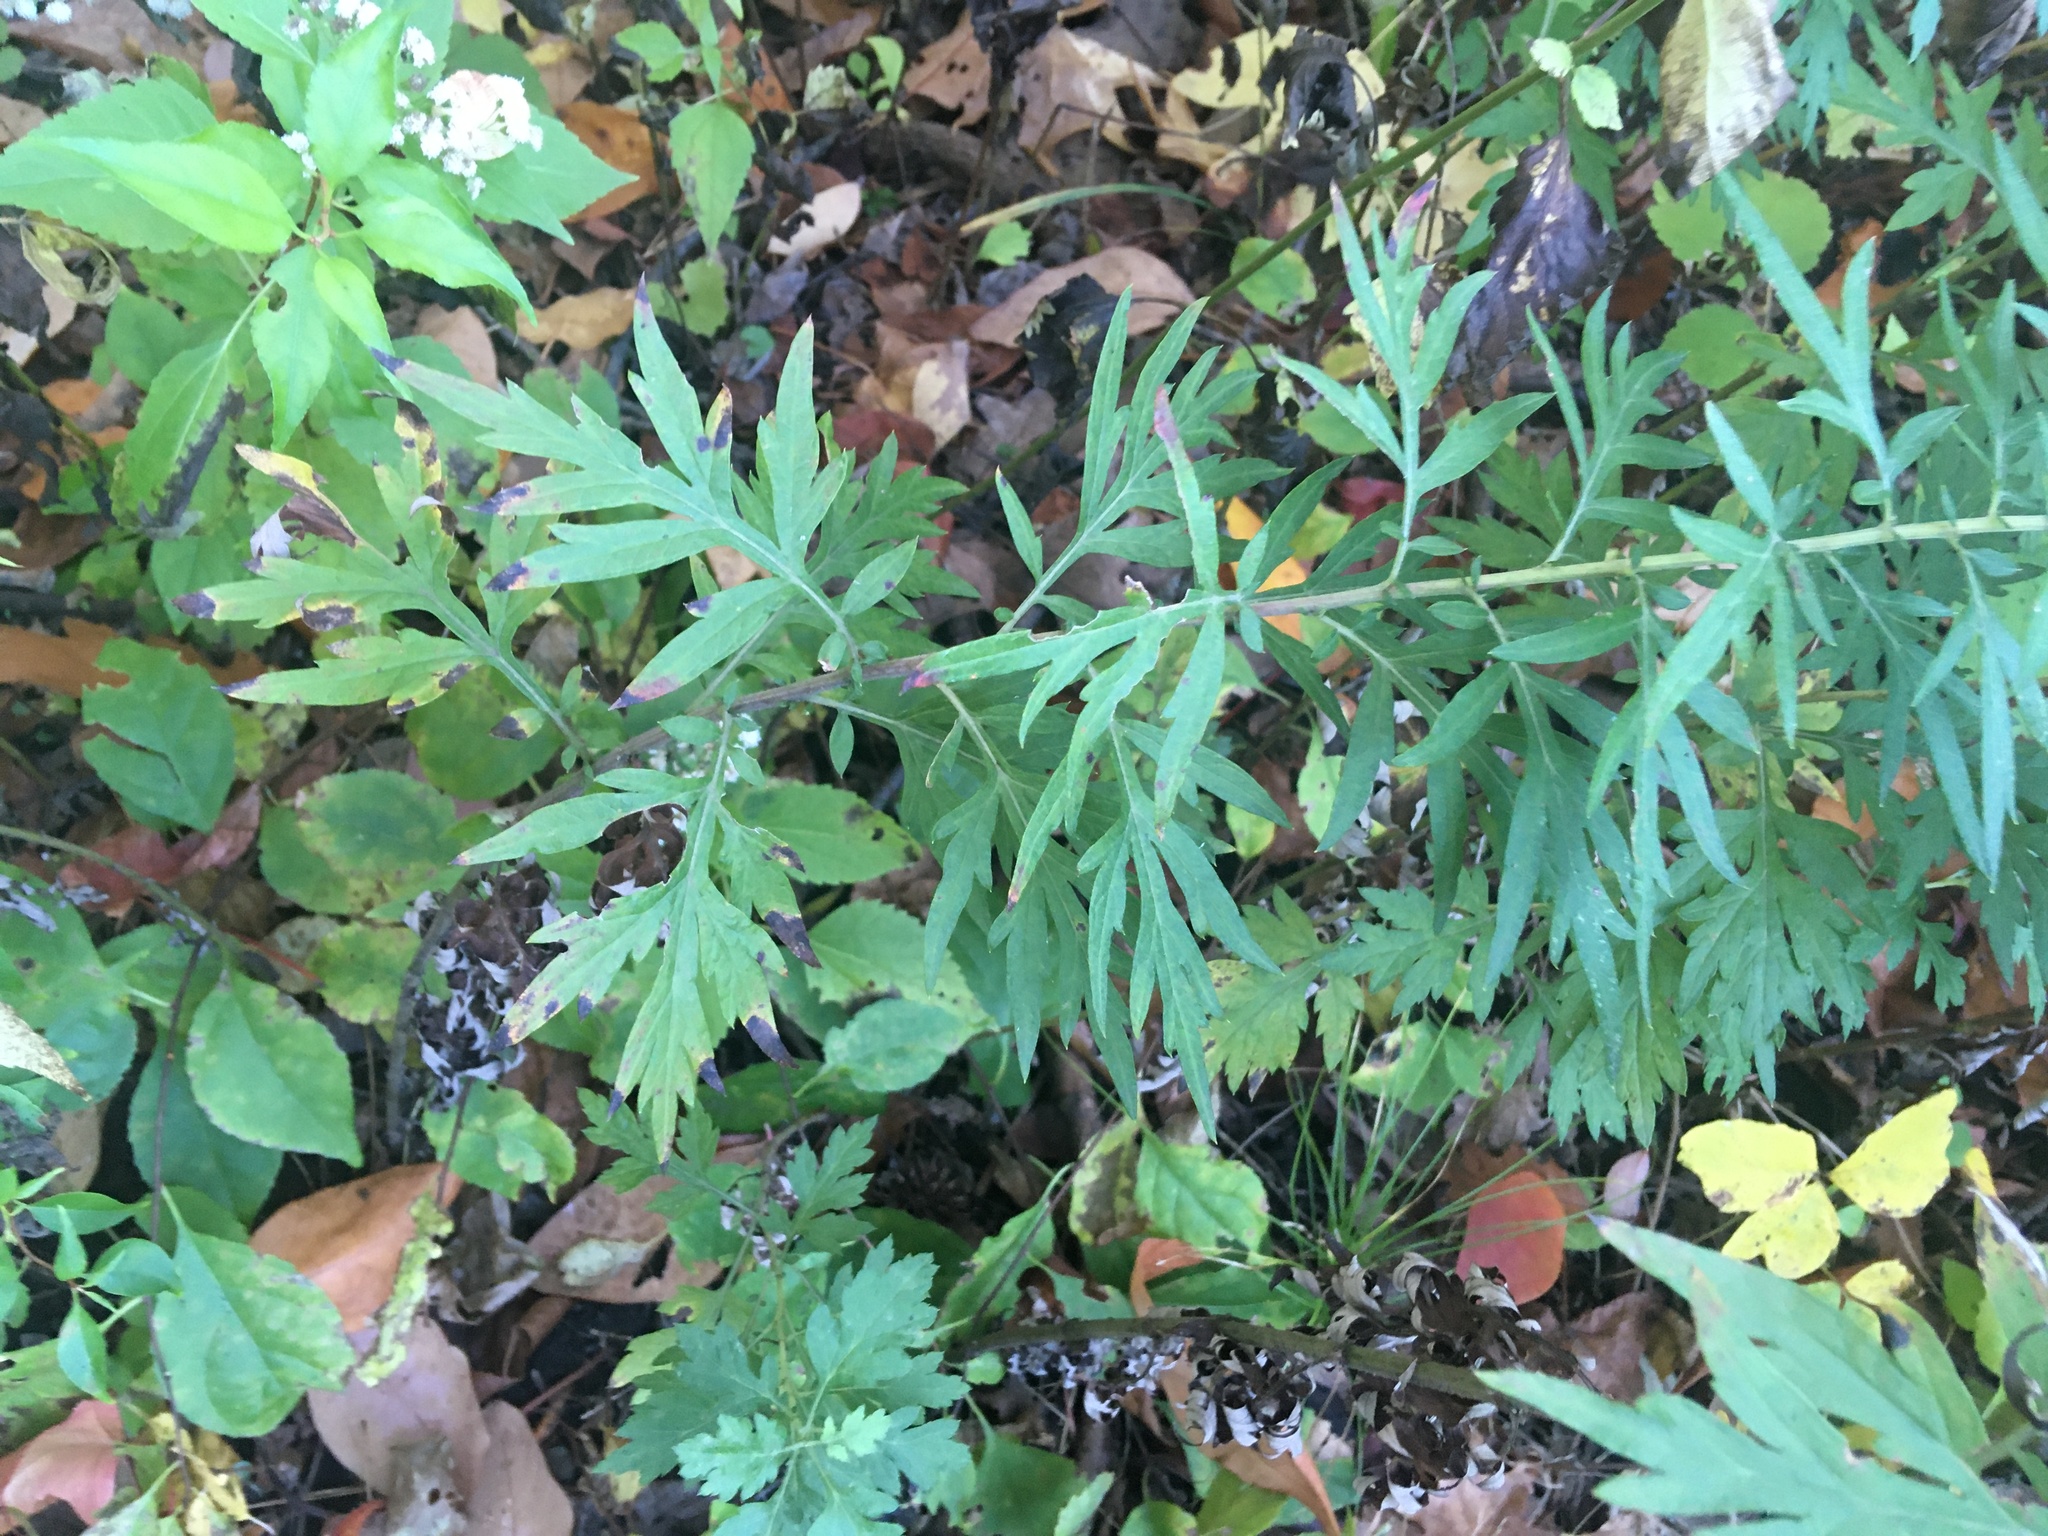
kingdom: Plantae
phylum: Tracheophyta
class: Magnoliopsida
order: Asterales
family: Asteraceae
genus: Artemisia
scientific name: Artemisia vulgaris
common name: Mugwort
